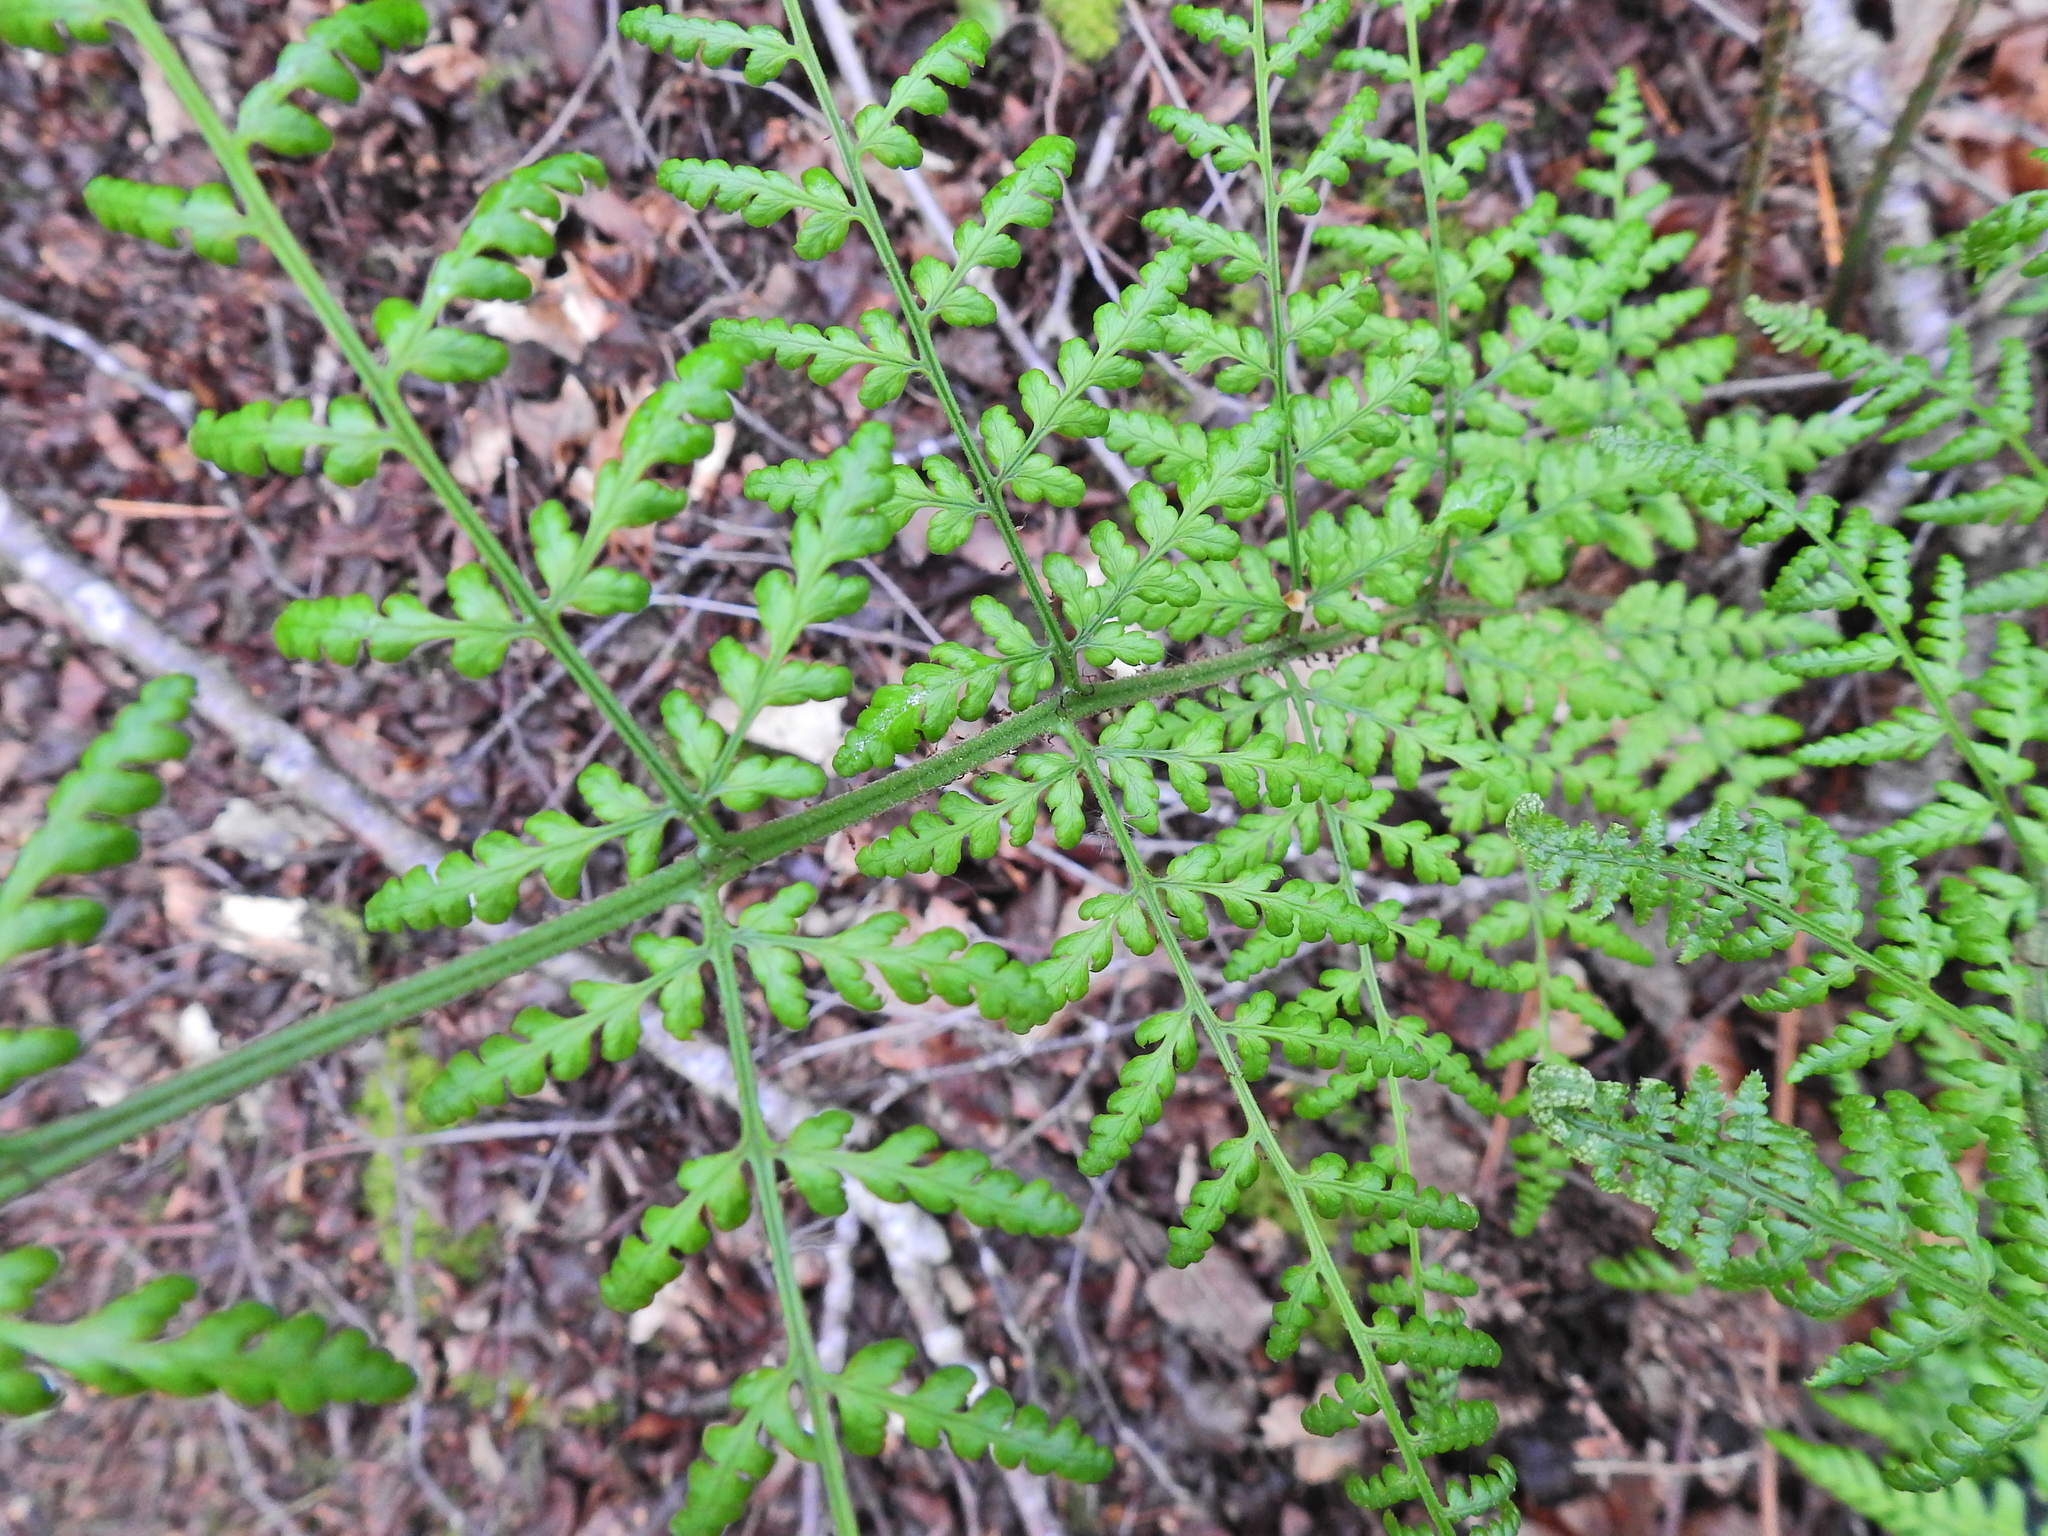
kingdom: Plantae
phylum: Tracheophyta
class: Polypodiopsida
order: Polypodiales
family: Dryopteridaceae
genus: Dryopteris
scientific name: Dryopteris dilatata
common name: Broad buckler-fern
